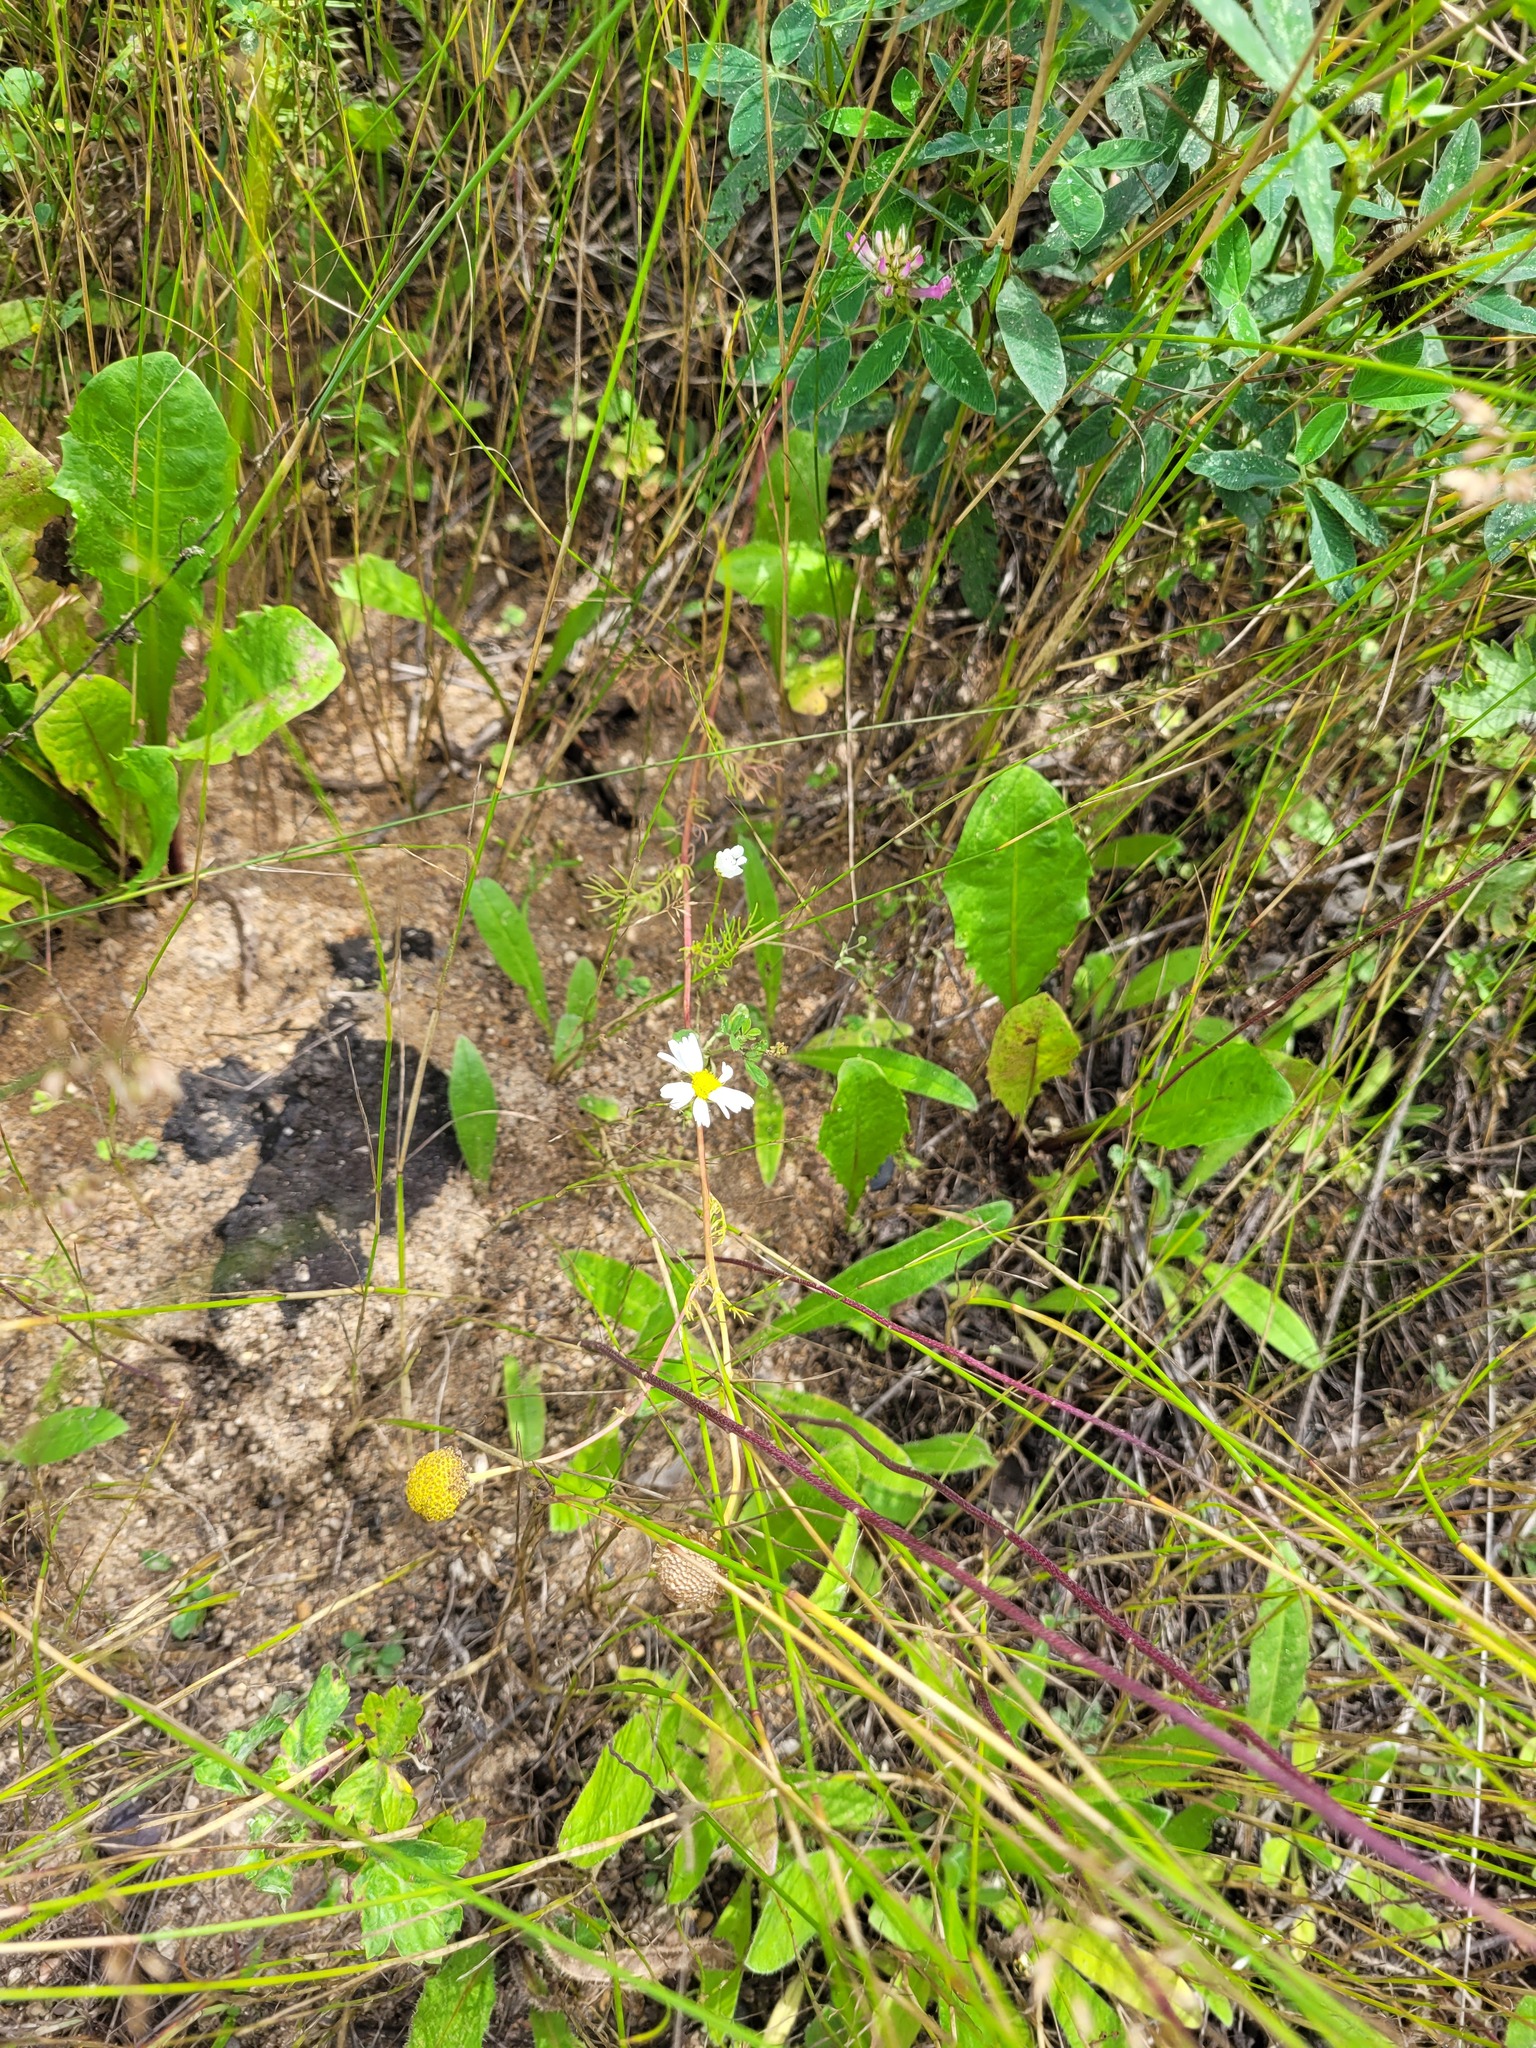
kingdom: Plantae
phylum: Tracheophyta
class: Magnoliopsida
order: Asterales
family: Asteraceae
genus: Tripleurospermum
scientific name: Tripleurospermum inodorum
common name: Scentless mayweed
